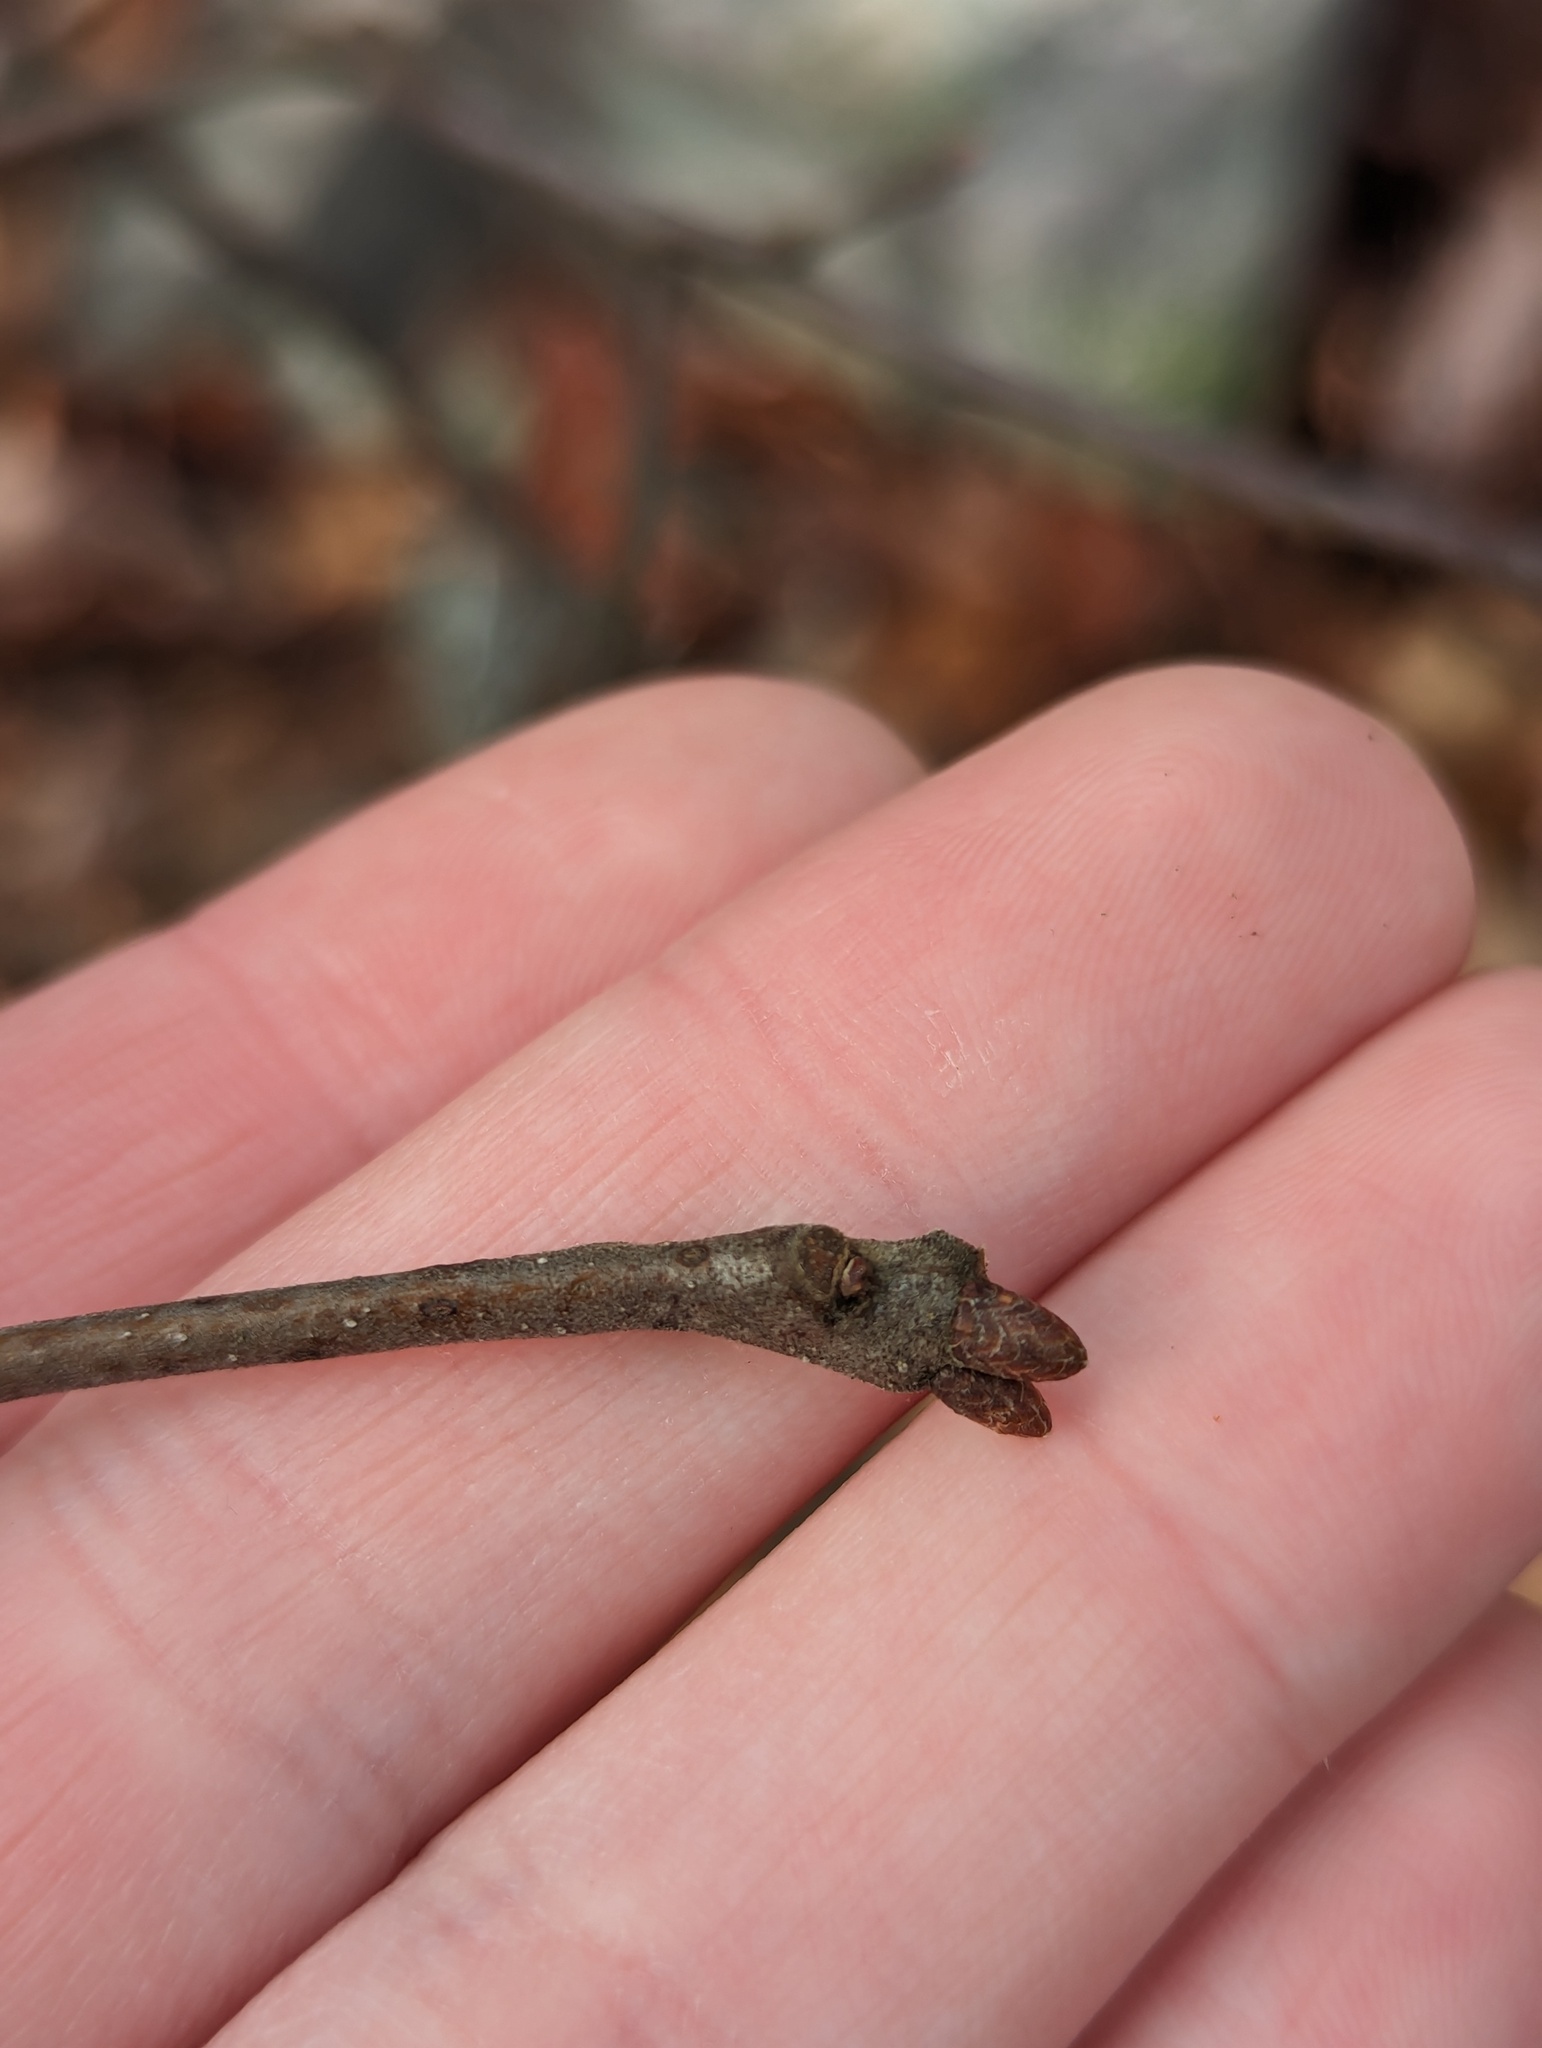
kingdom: Plantae
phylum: Tracheophyta
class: Magnoliopsida
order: Fagales
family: Fagaceae
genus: Quercus
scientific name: Quercus ilicifolia
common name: Bear oak
